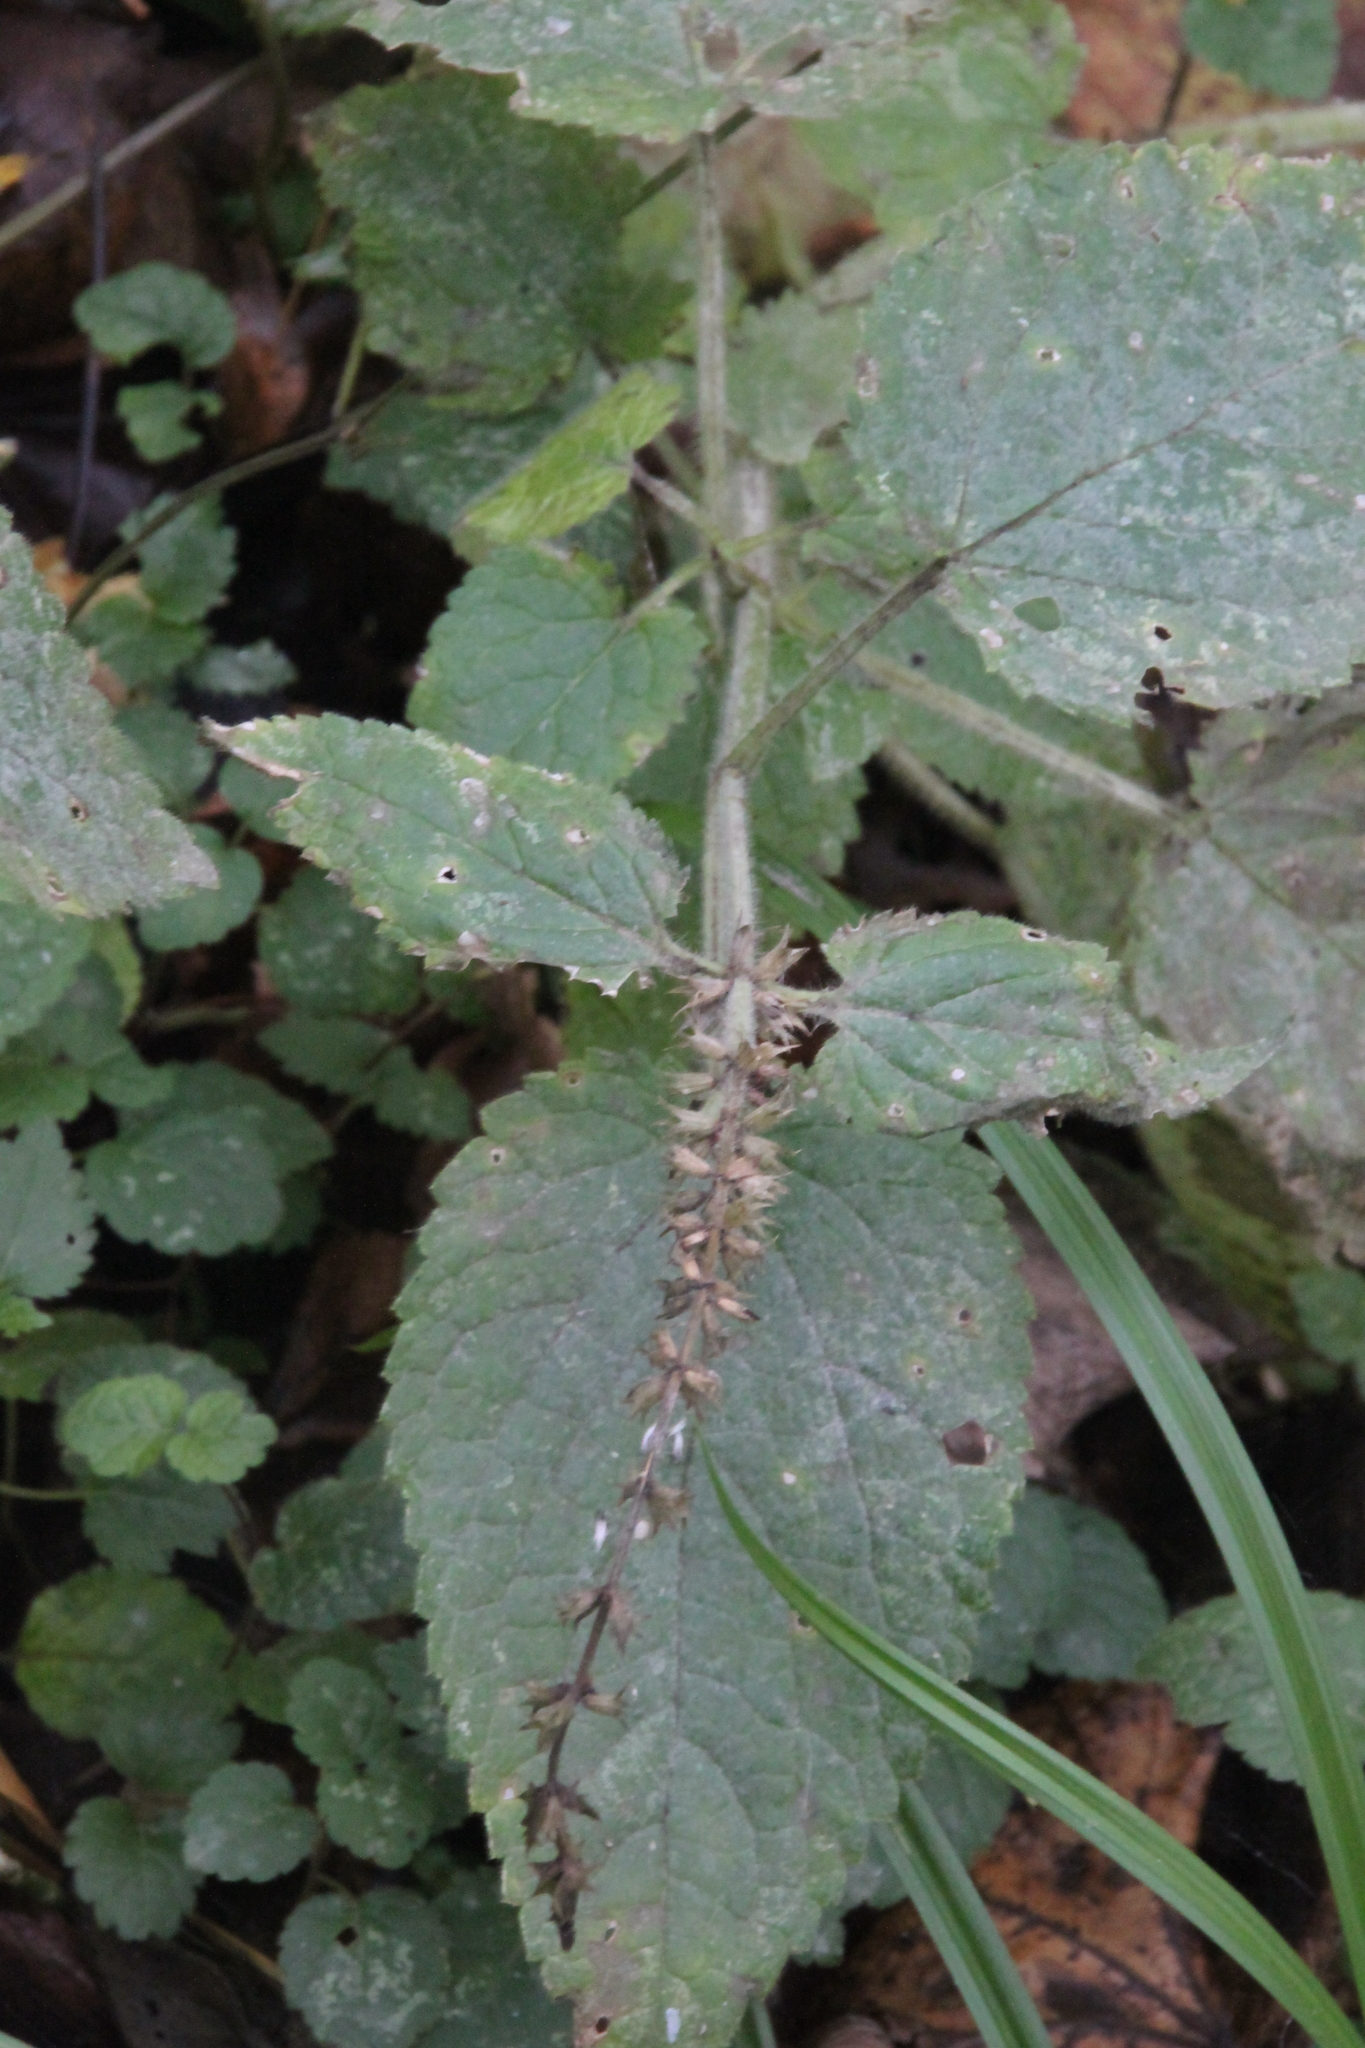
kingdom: Plantae
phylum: Tracheophyta
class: Magnoliopsida
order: Lamiales
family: Lamiaceae
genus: Stachys
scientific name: Stachys sylvatica
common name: Hedge woundwort
